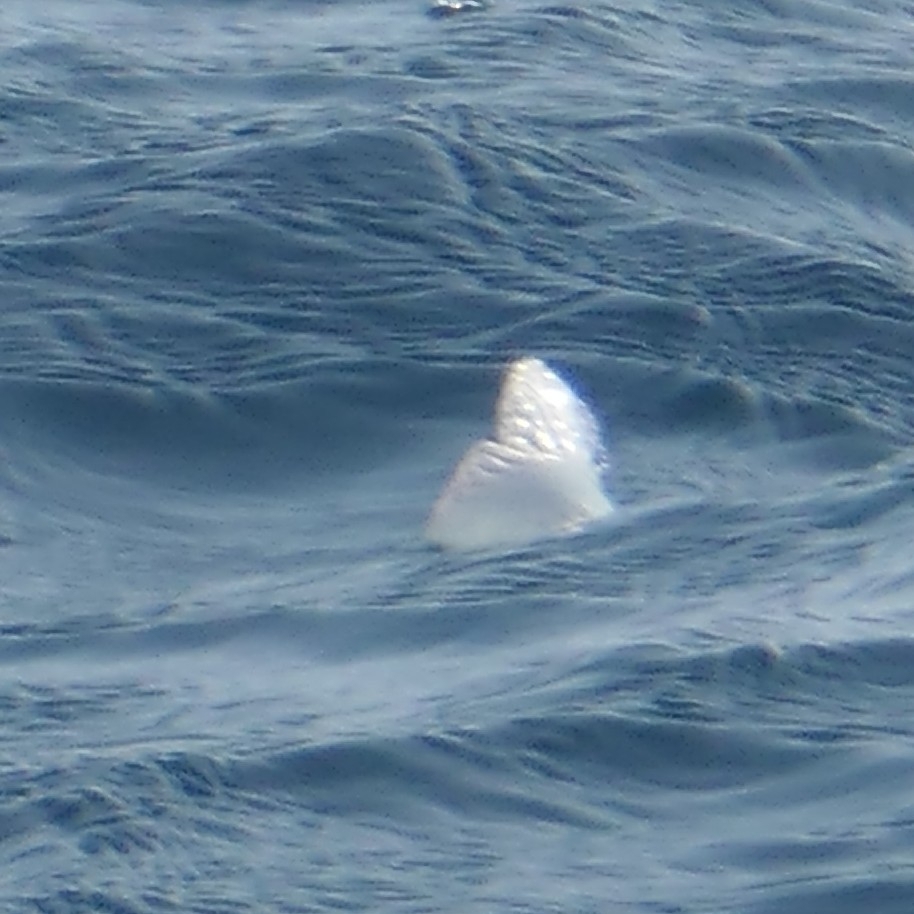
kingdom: Animalia
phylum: Cnidaria
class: Hydrozoa
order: Siphonophorae
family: Physaliidae
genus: Physalia
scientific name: Physalia physalis
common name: Portuguese man-of-war
